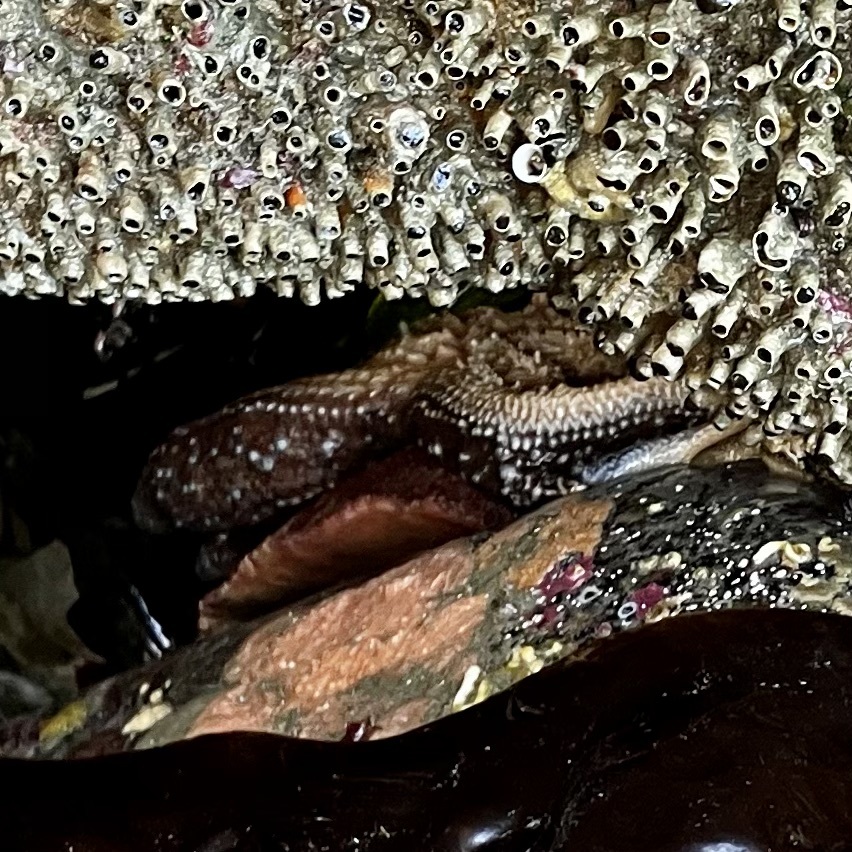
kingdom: Animalia
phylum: Echinodermata
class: Asteroidea
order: Forcipulatida
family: Asteriidae
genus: Evasterias
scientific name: Evasterias troschelii
